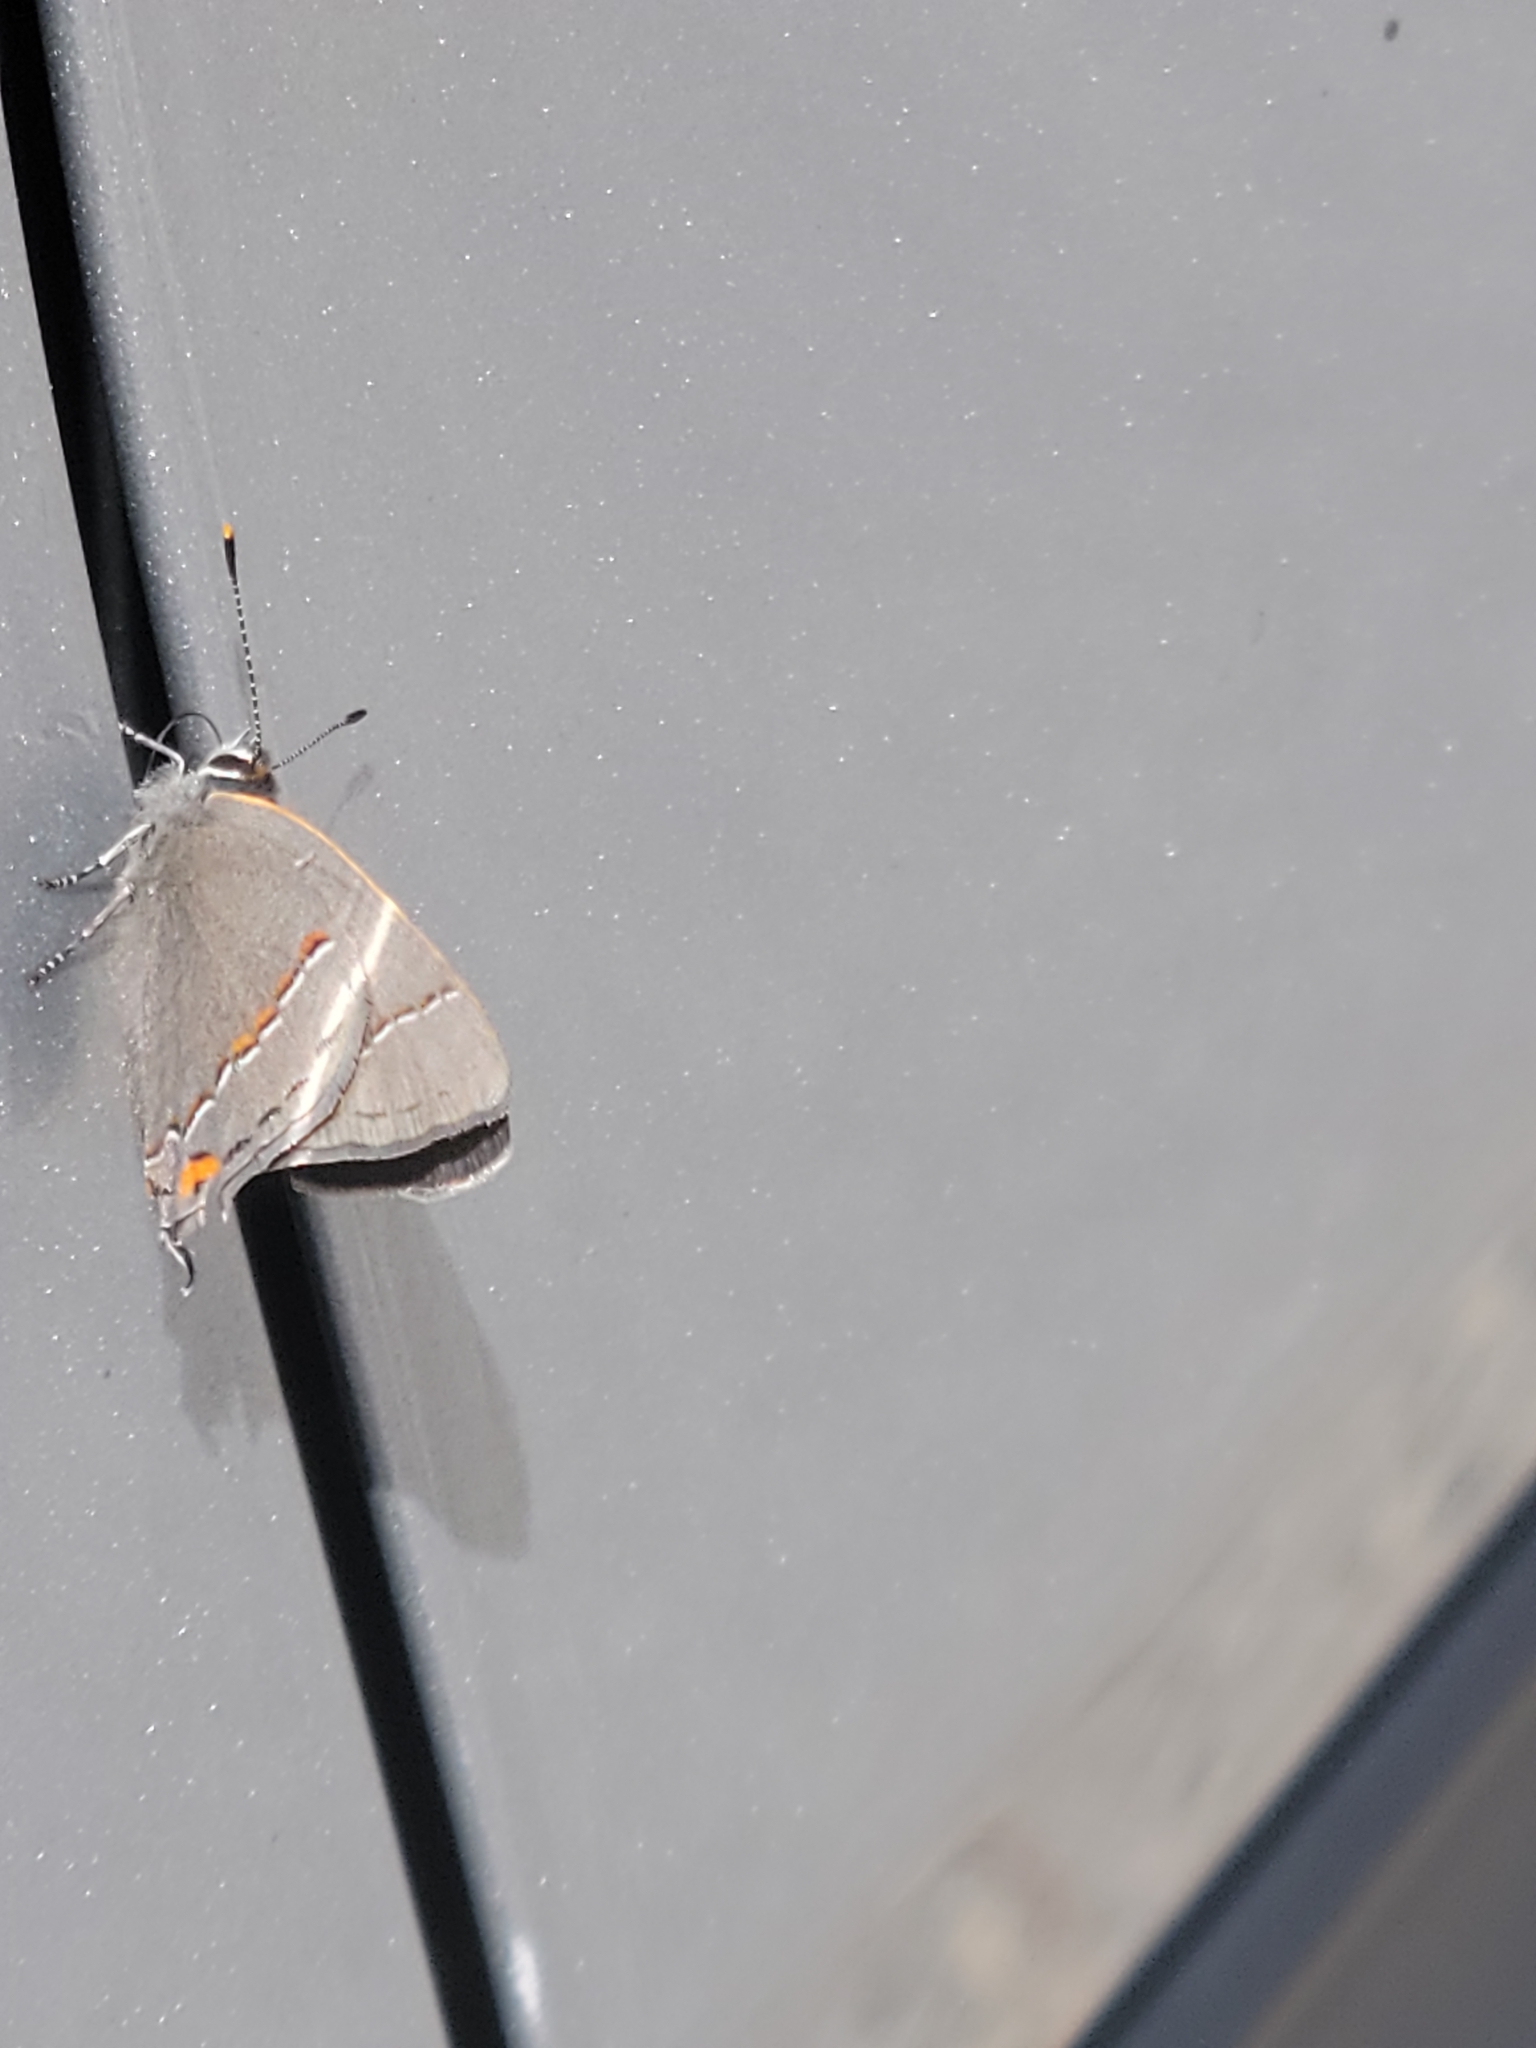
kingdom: Animalia
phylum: Arthropoda
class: Insecta
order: Lepidoptera
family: Lycaenidae
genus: Strymon
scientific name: Strymon melinus
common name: Gray hairstreak
